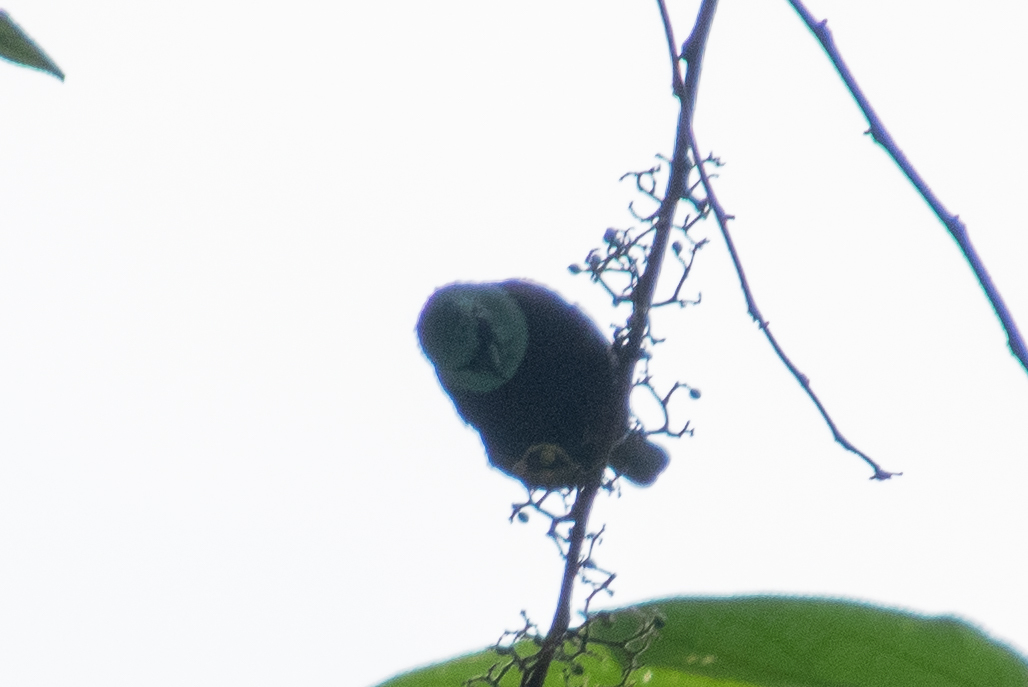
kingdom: Animalia
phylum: Chordata
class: Aves
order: Passeriformes
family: Thraupidae
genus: Stilpnia
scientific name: Stilpnia cyanicollis
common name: Blue-necked tanager
